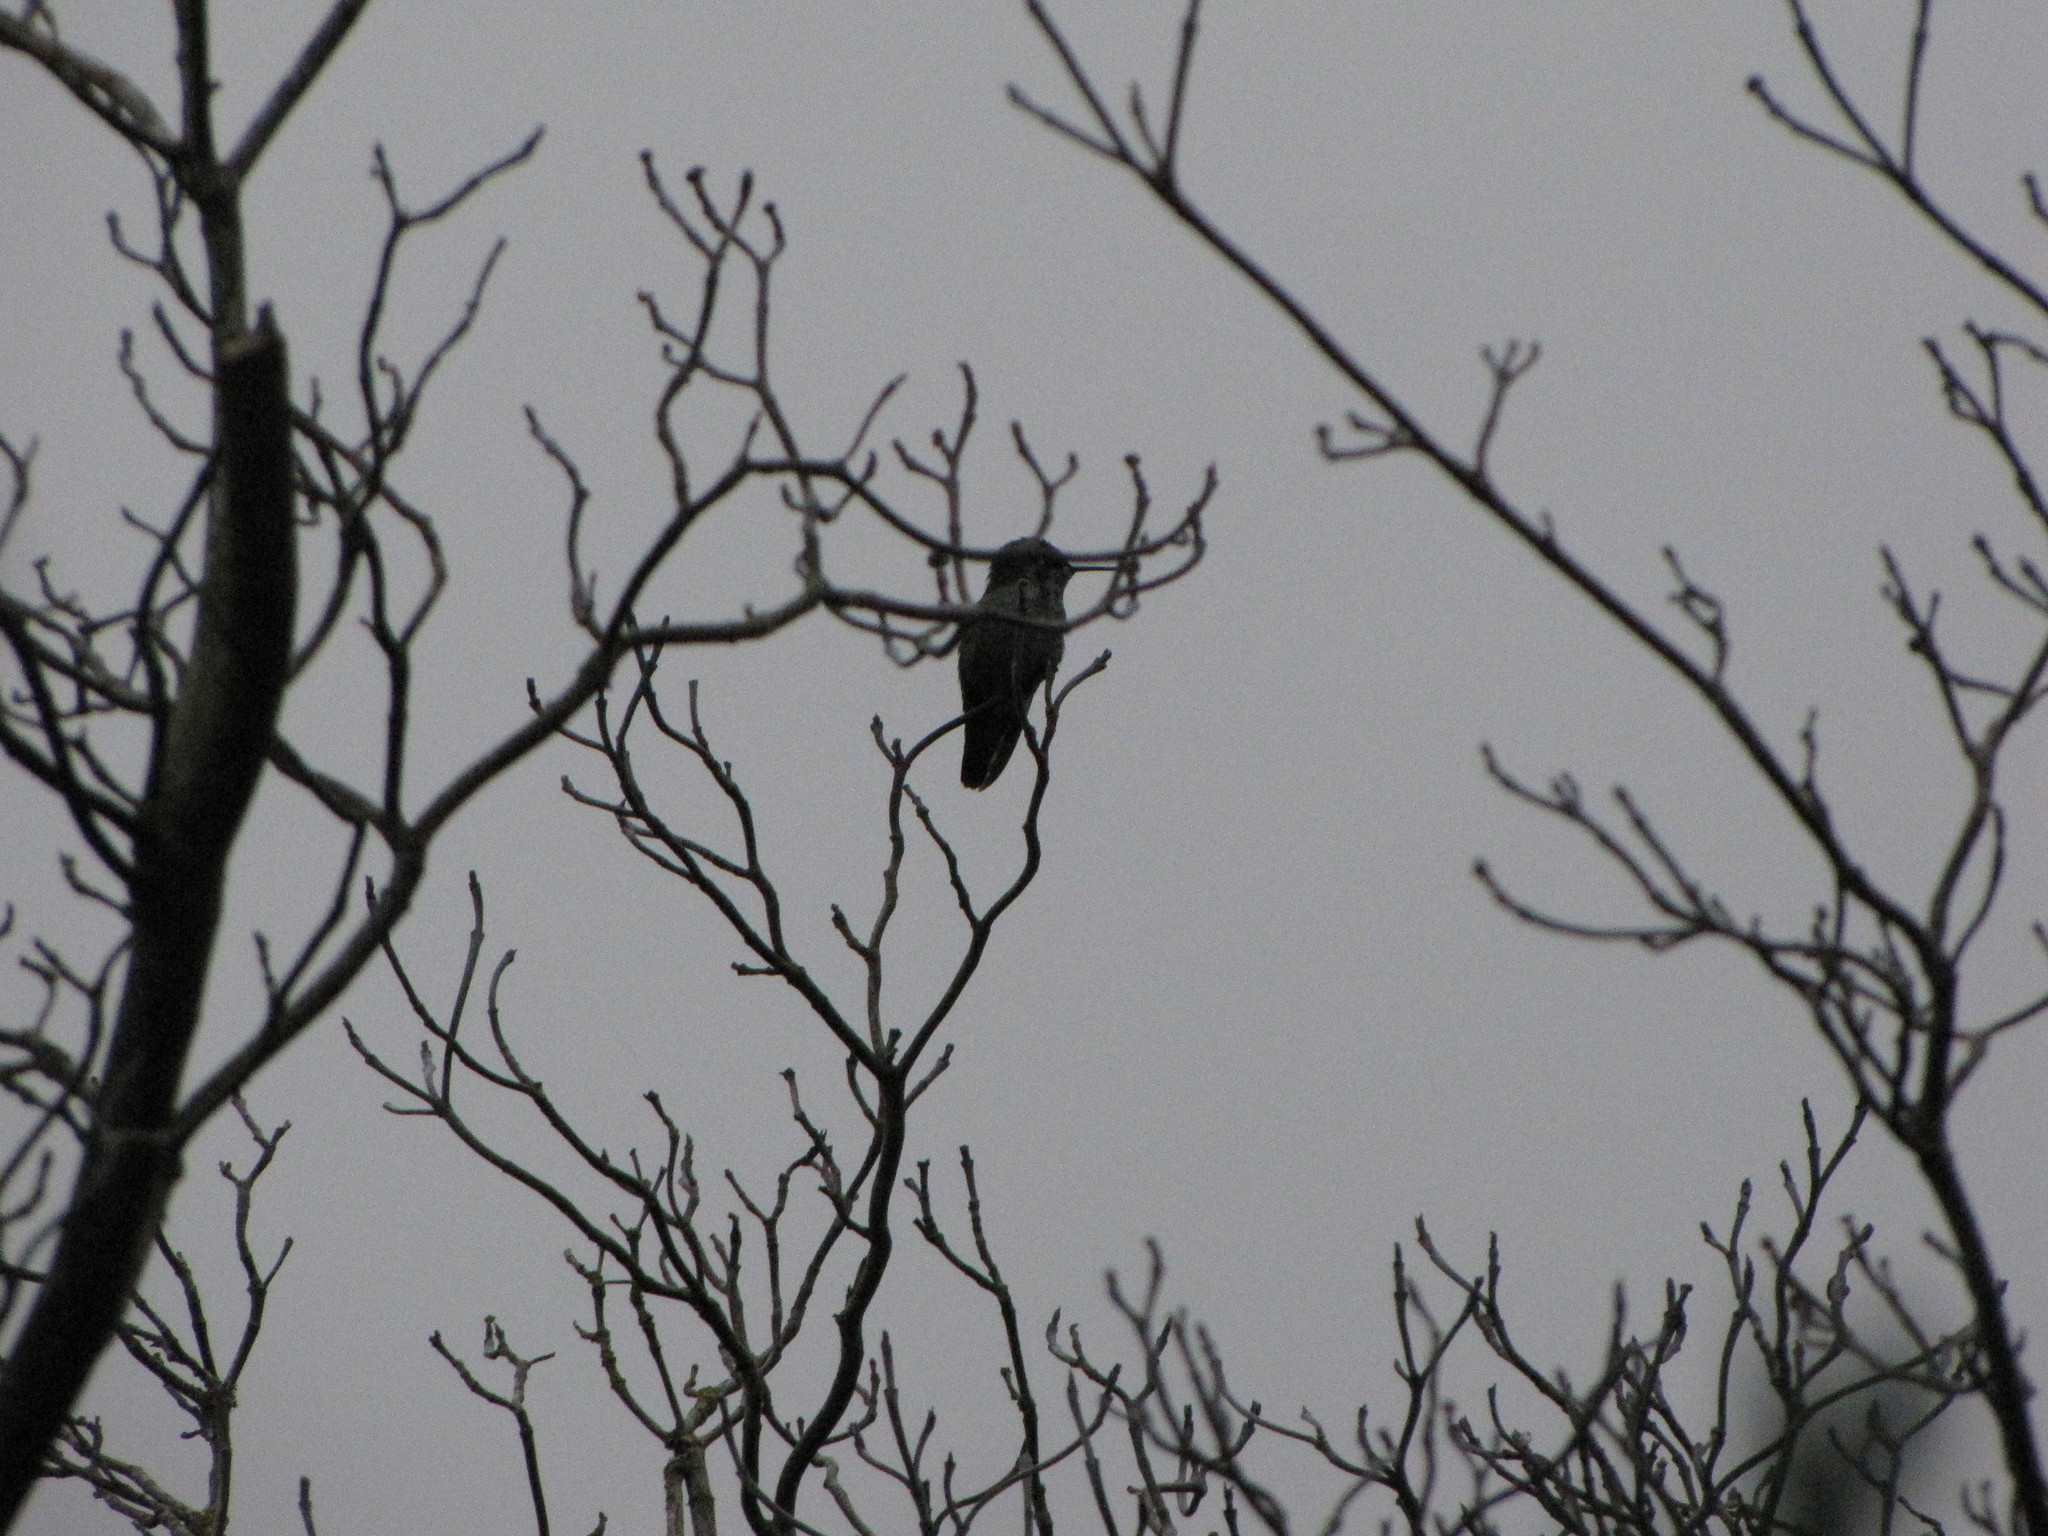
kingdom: Animalia
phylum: Chordata
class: Aves
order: Apodiformes
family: Trochilidae
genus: Calypte
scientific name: Calypte anna
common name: Anna's hummingbird
